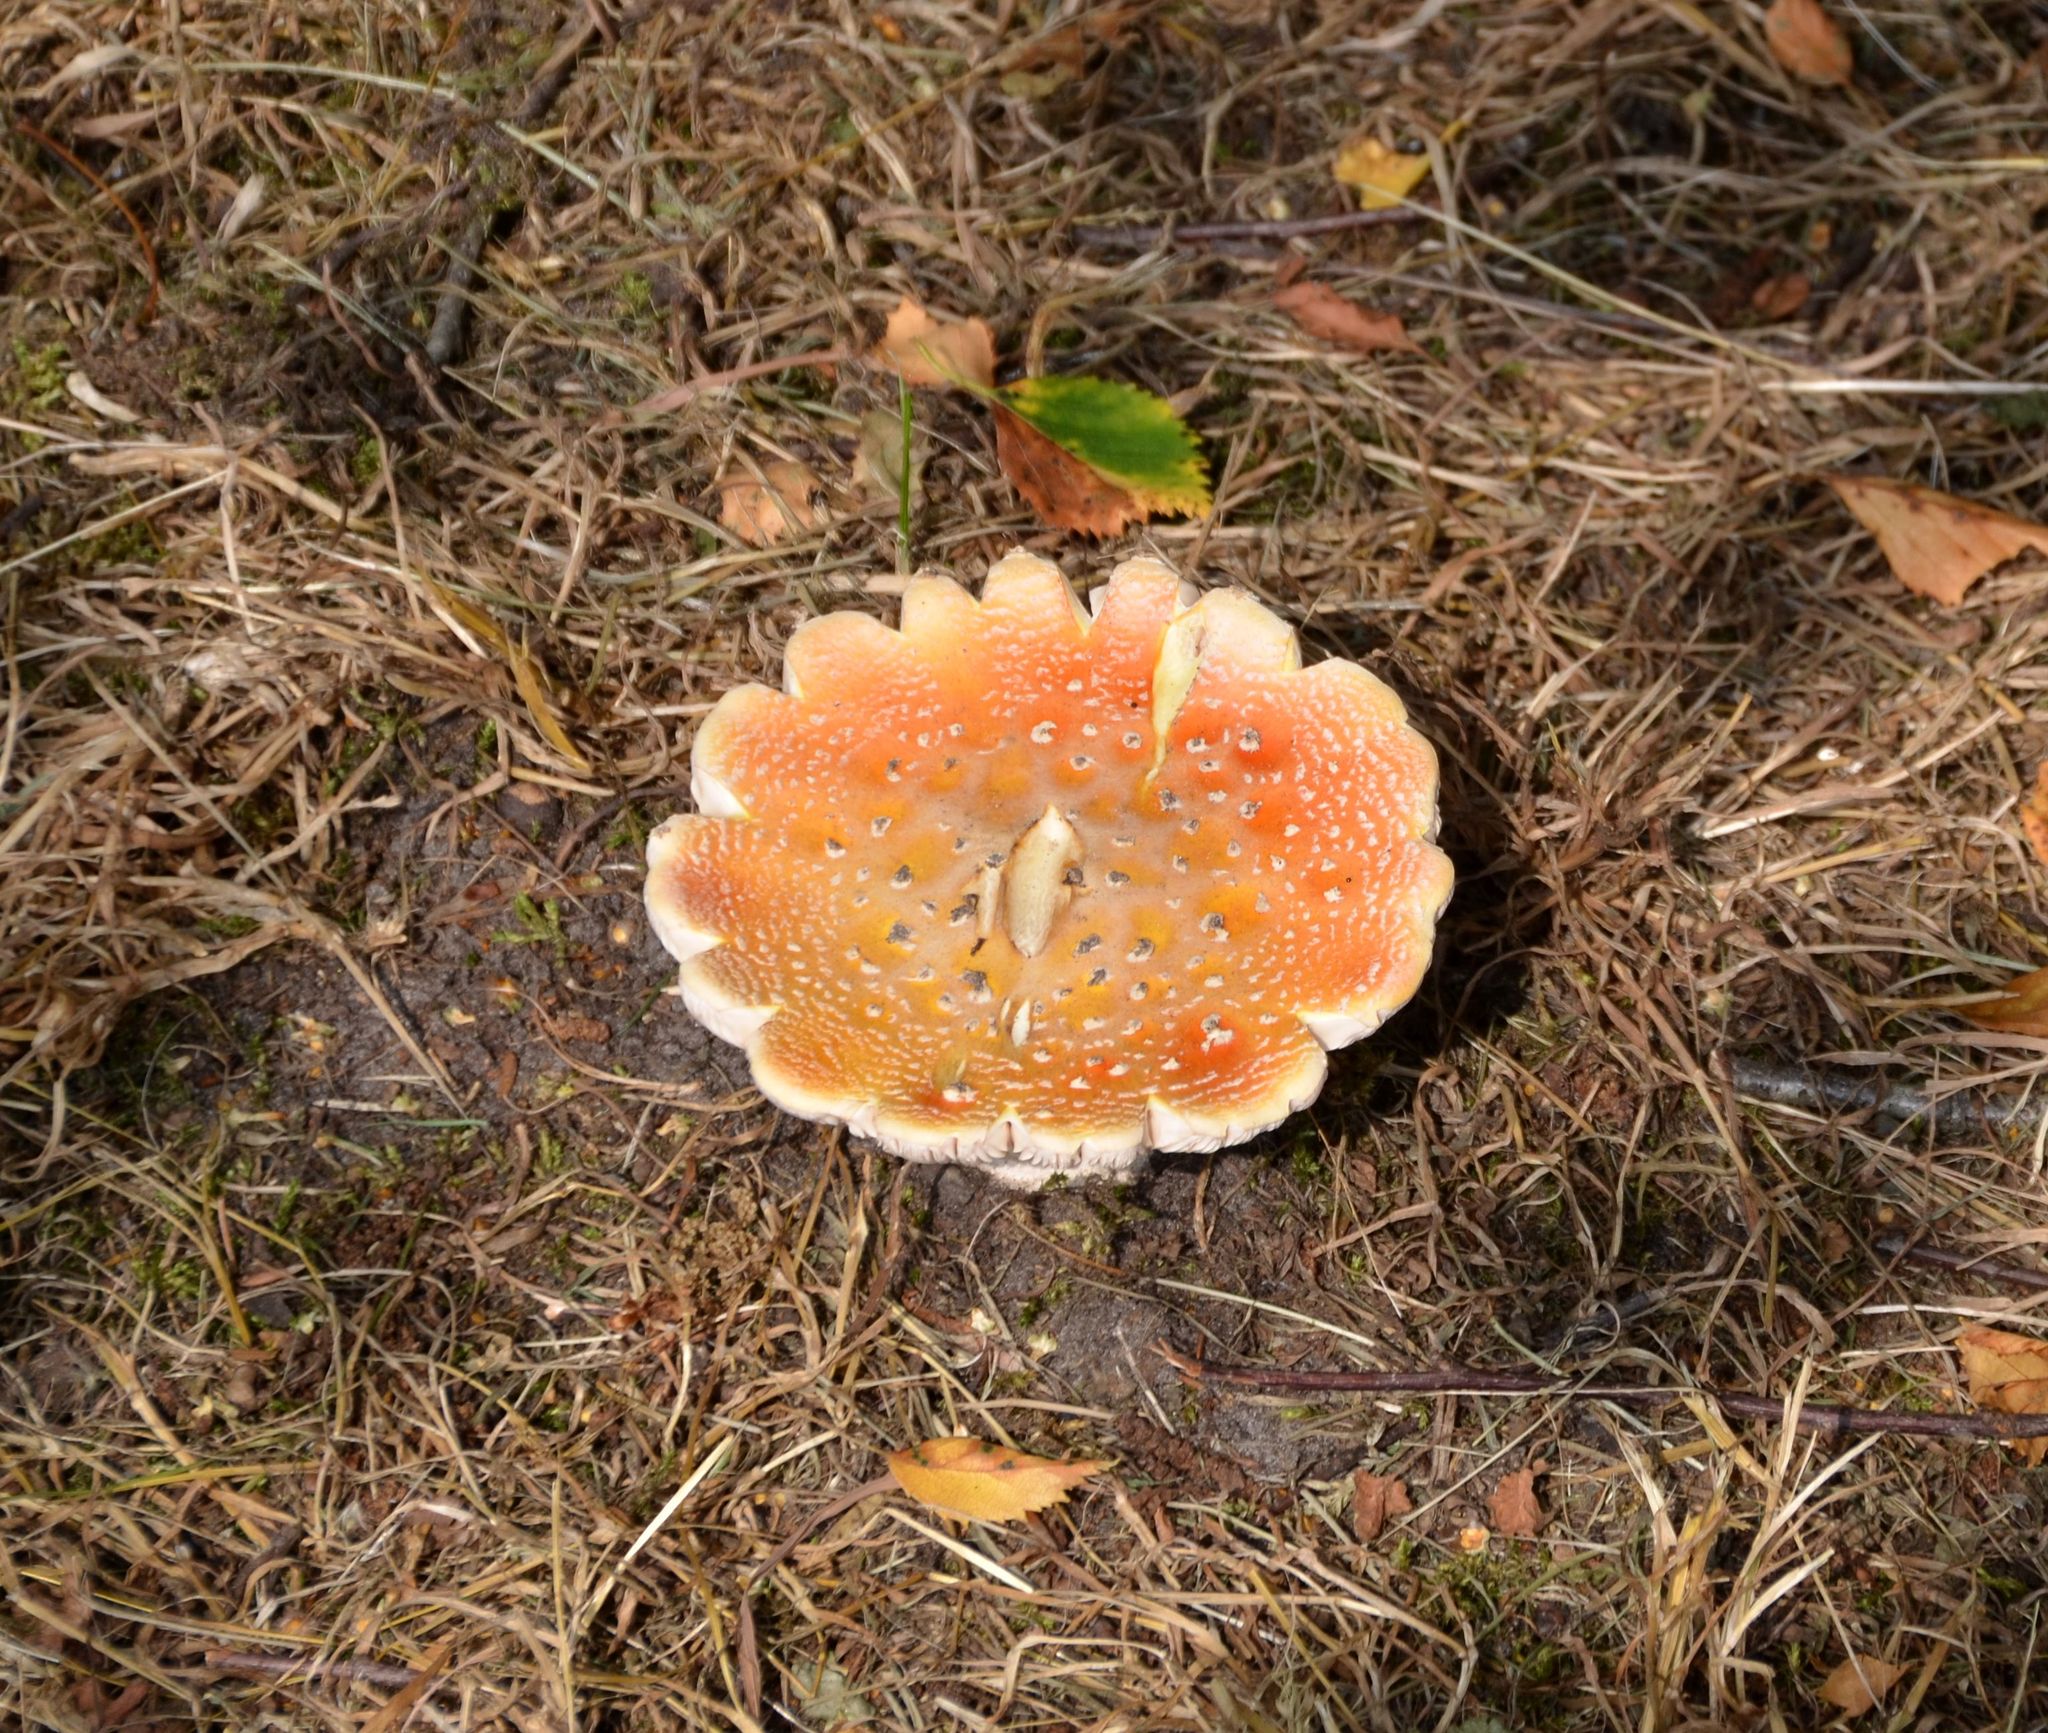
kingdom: Fungi
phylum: Basidiomycota
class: Agaricomycetes
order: Agaricales
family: Amanitaceae
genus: Amanita
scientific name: Amanita muscaria
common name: Fly agaric
